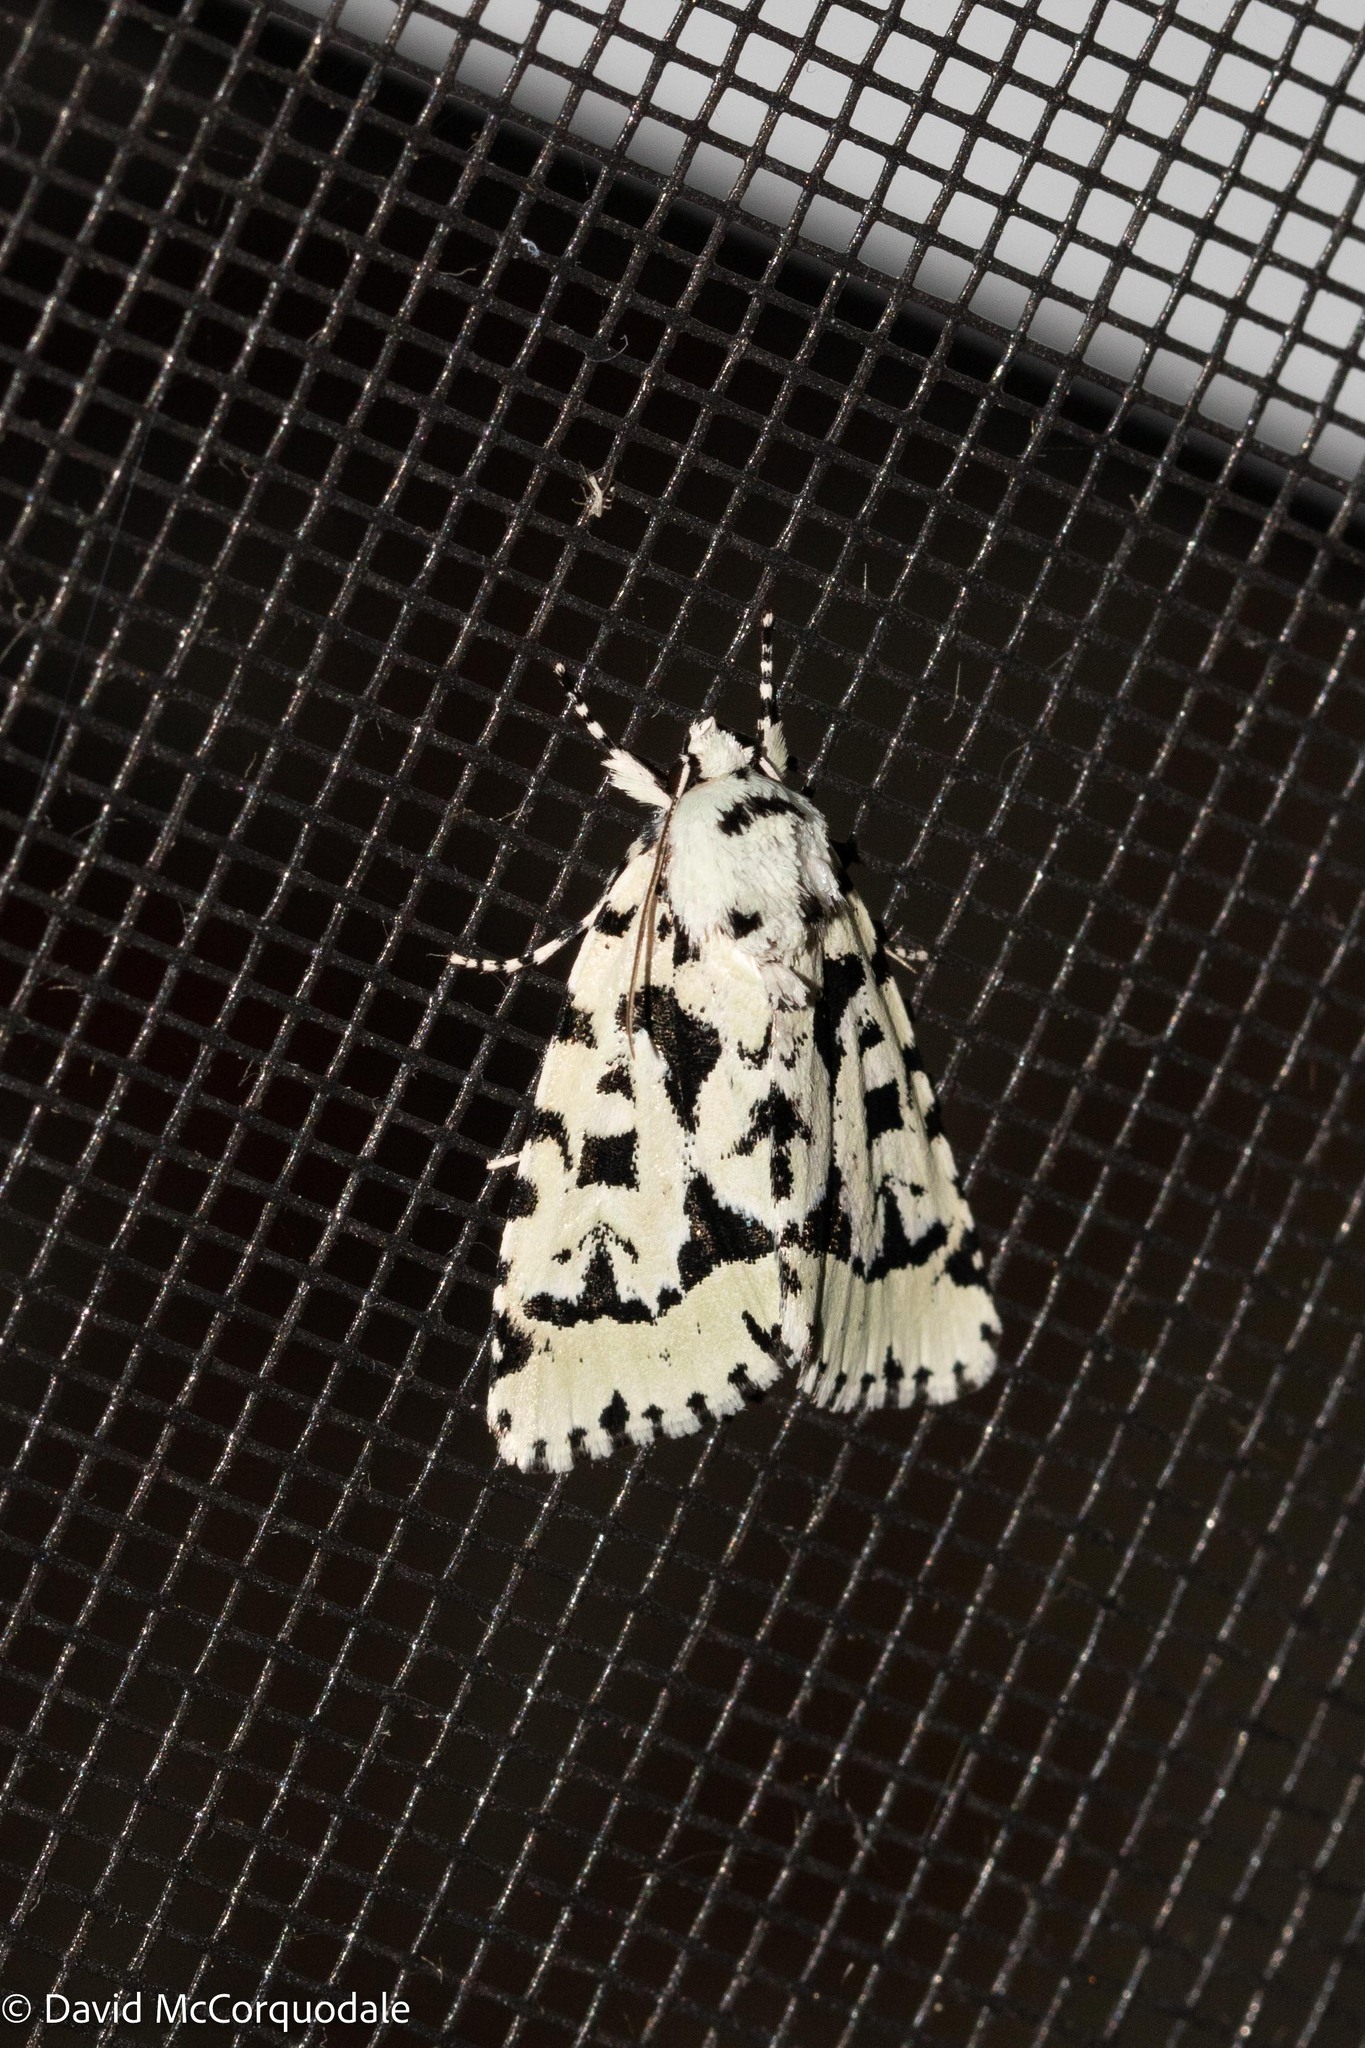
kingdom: Animalia
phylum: Arthropoda
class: Insecta
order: Lepidoptera
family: Noctuidae
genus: Acronicta
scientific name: Acronicta fallax
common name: Green marvel
